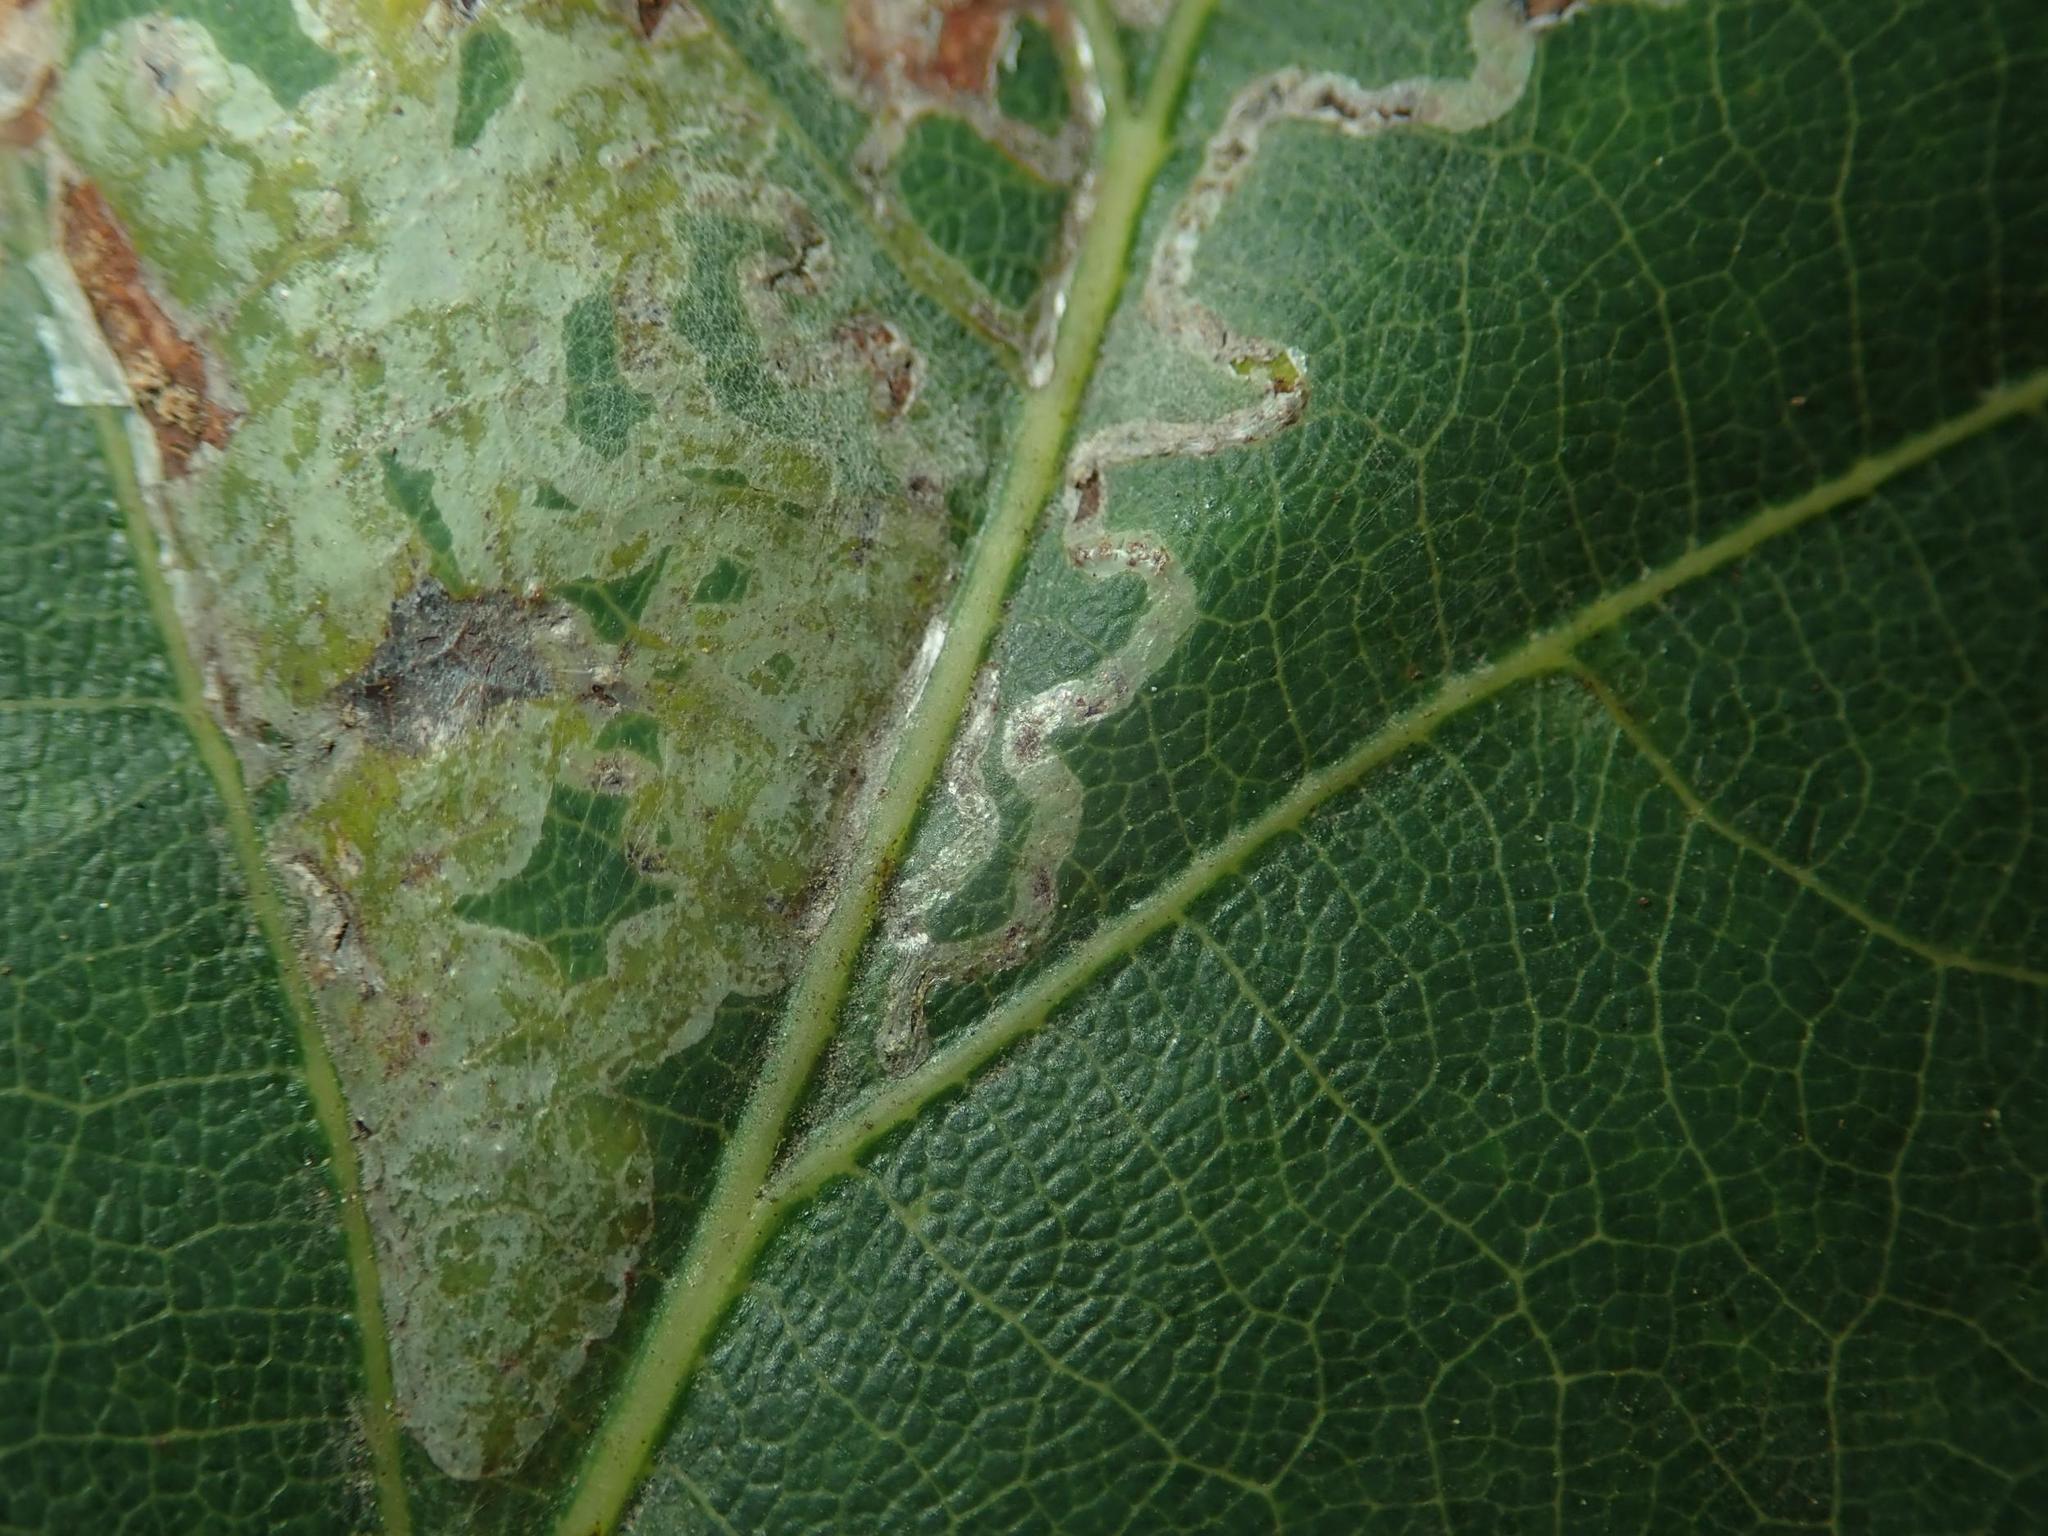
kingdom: Animalia
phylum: Arthropoda
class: Insecta
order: Lepidoptera
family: Gracillariidae
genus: Acrocercops
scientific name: Acrocercops brongniardella
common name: Brown oak slender
